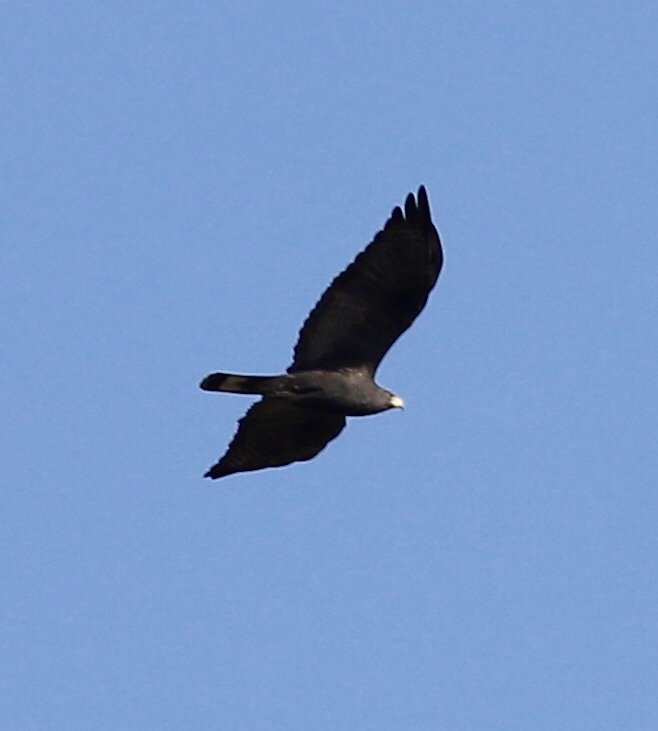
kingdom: Animalia
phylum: Chordata
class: Aves
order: Accipitriformes
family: Accipitridae
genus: Buteo
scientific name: Buteo albonotatus
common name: Zone-tailed hawk
